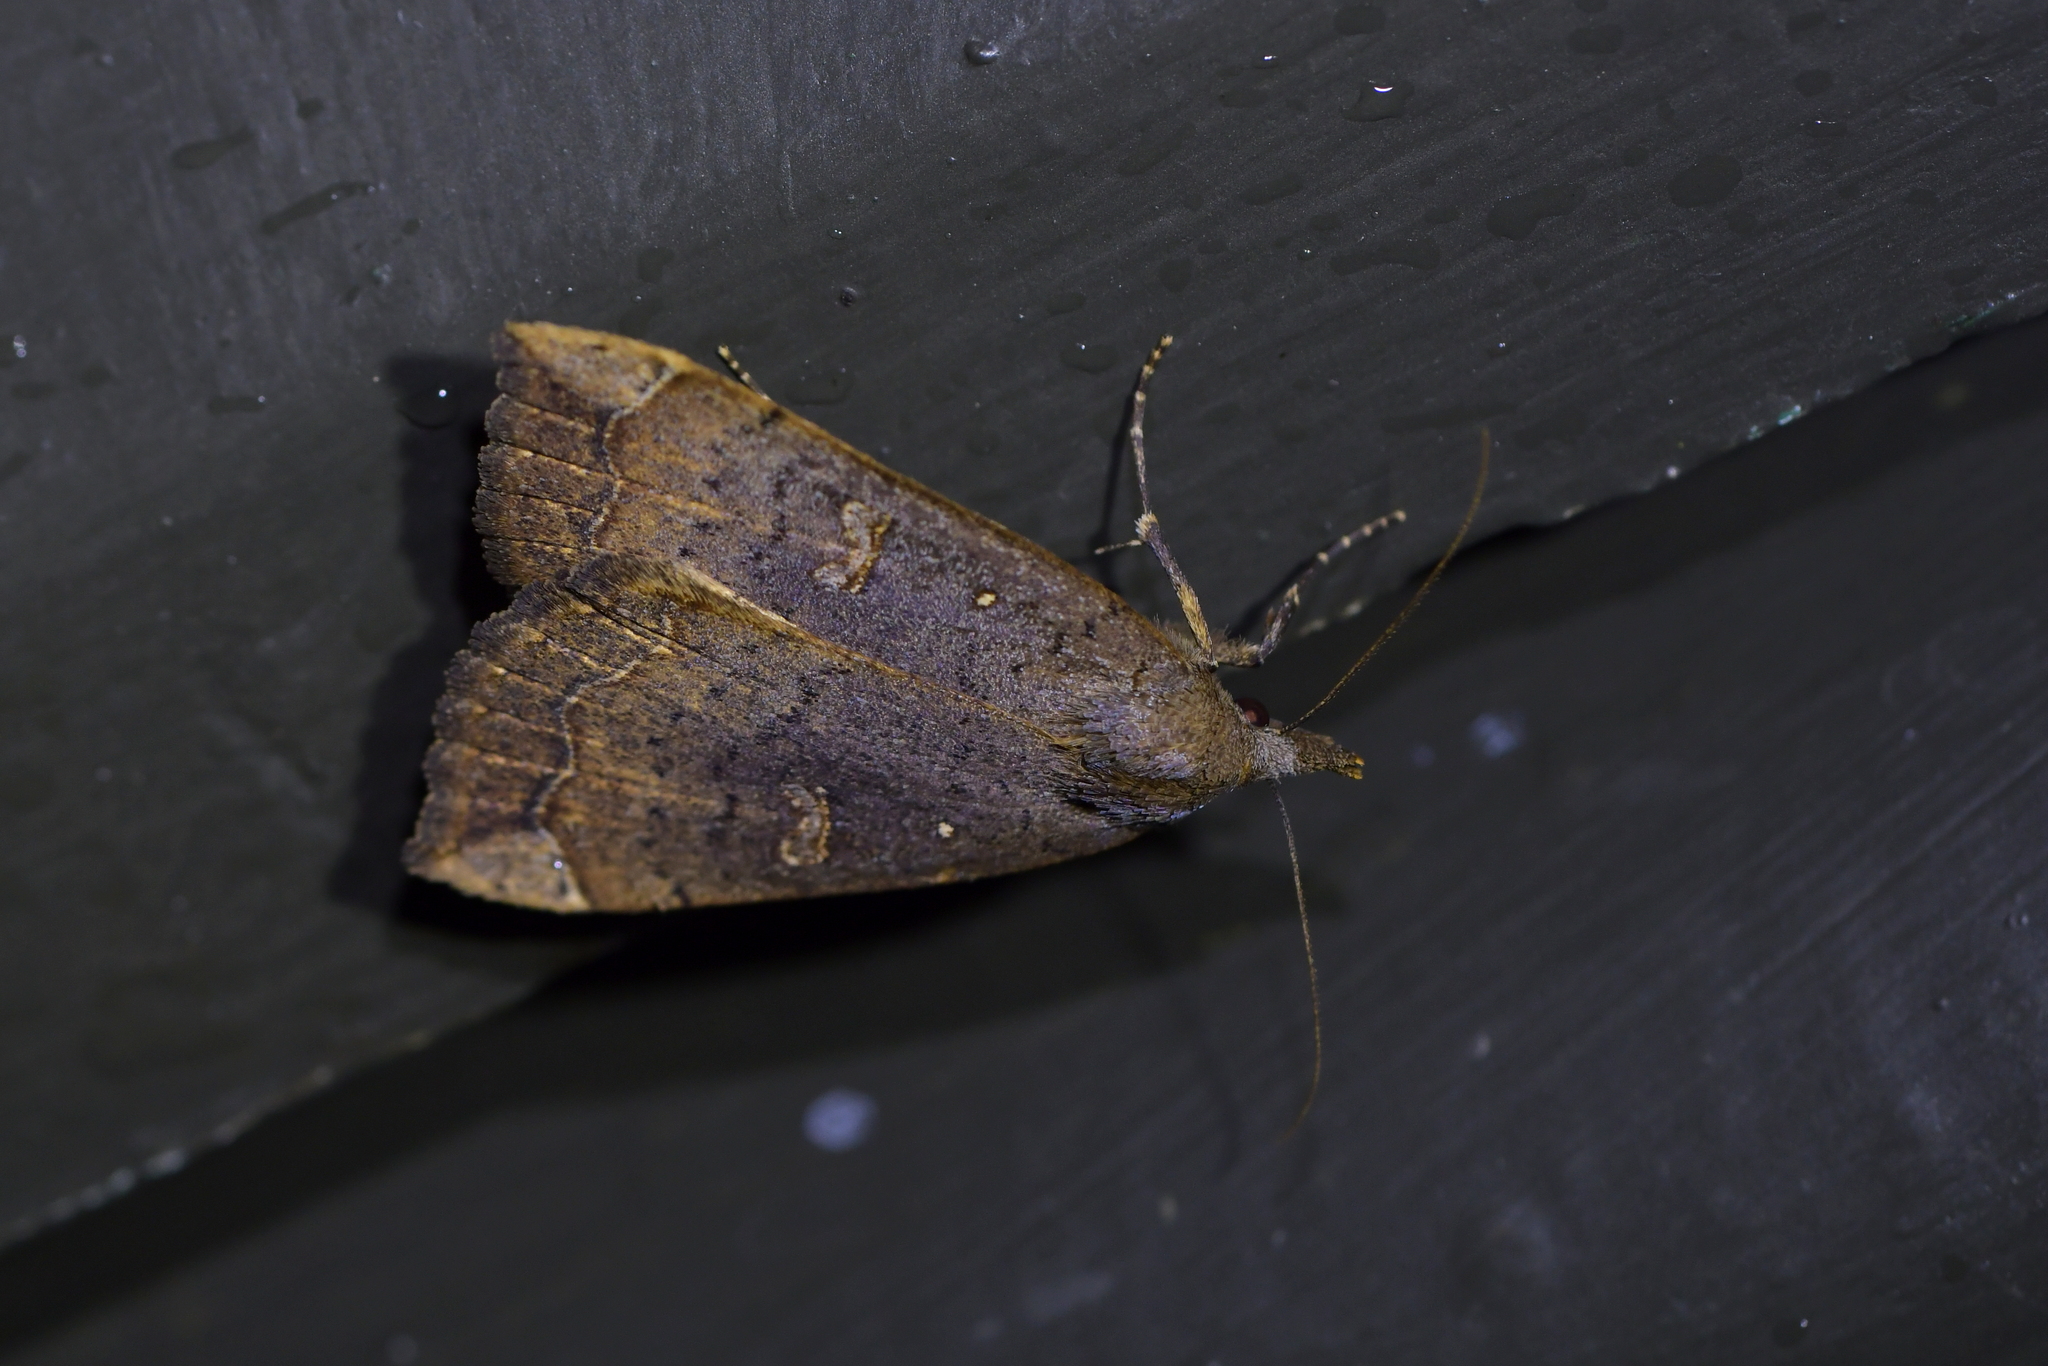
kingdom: Animalia
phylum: Arthropoda
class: Insecta
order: Lepidoptera
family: Erebidae
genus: Rhapsa
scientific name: Rhapsa scotosialis
